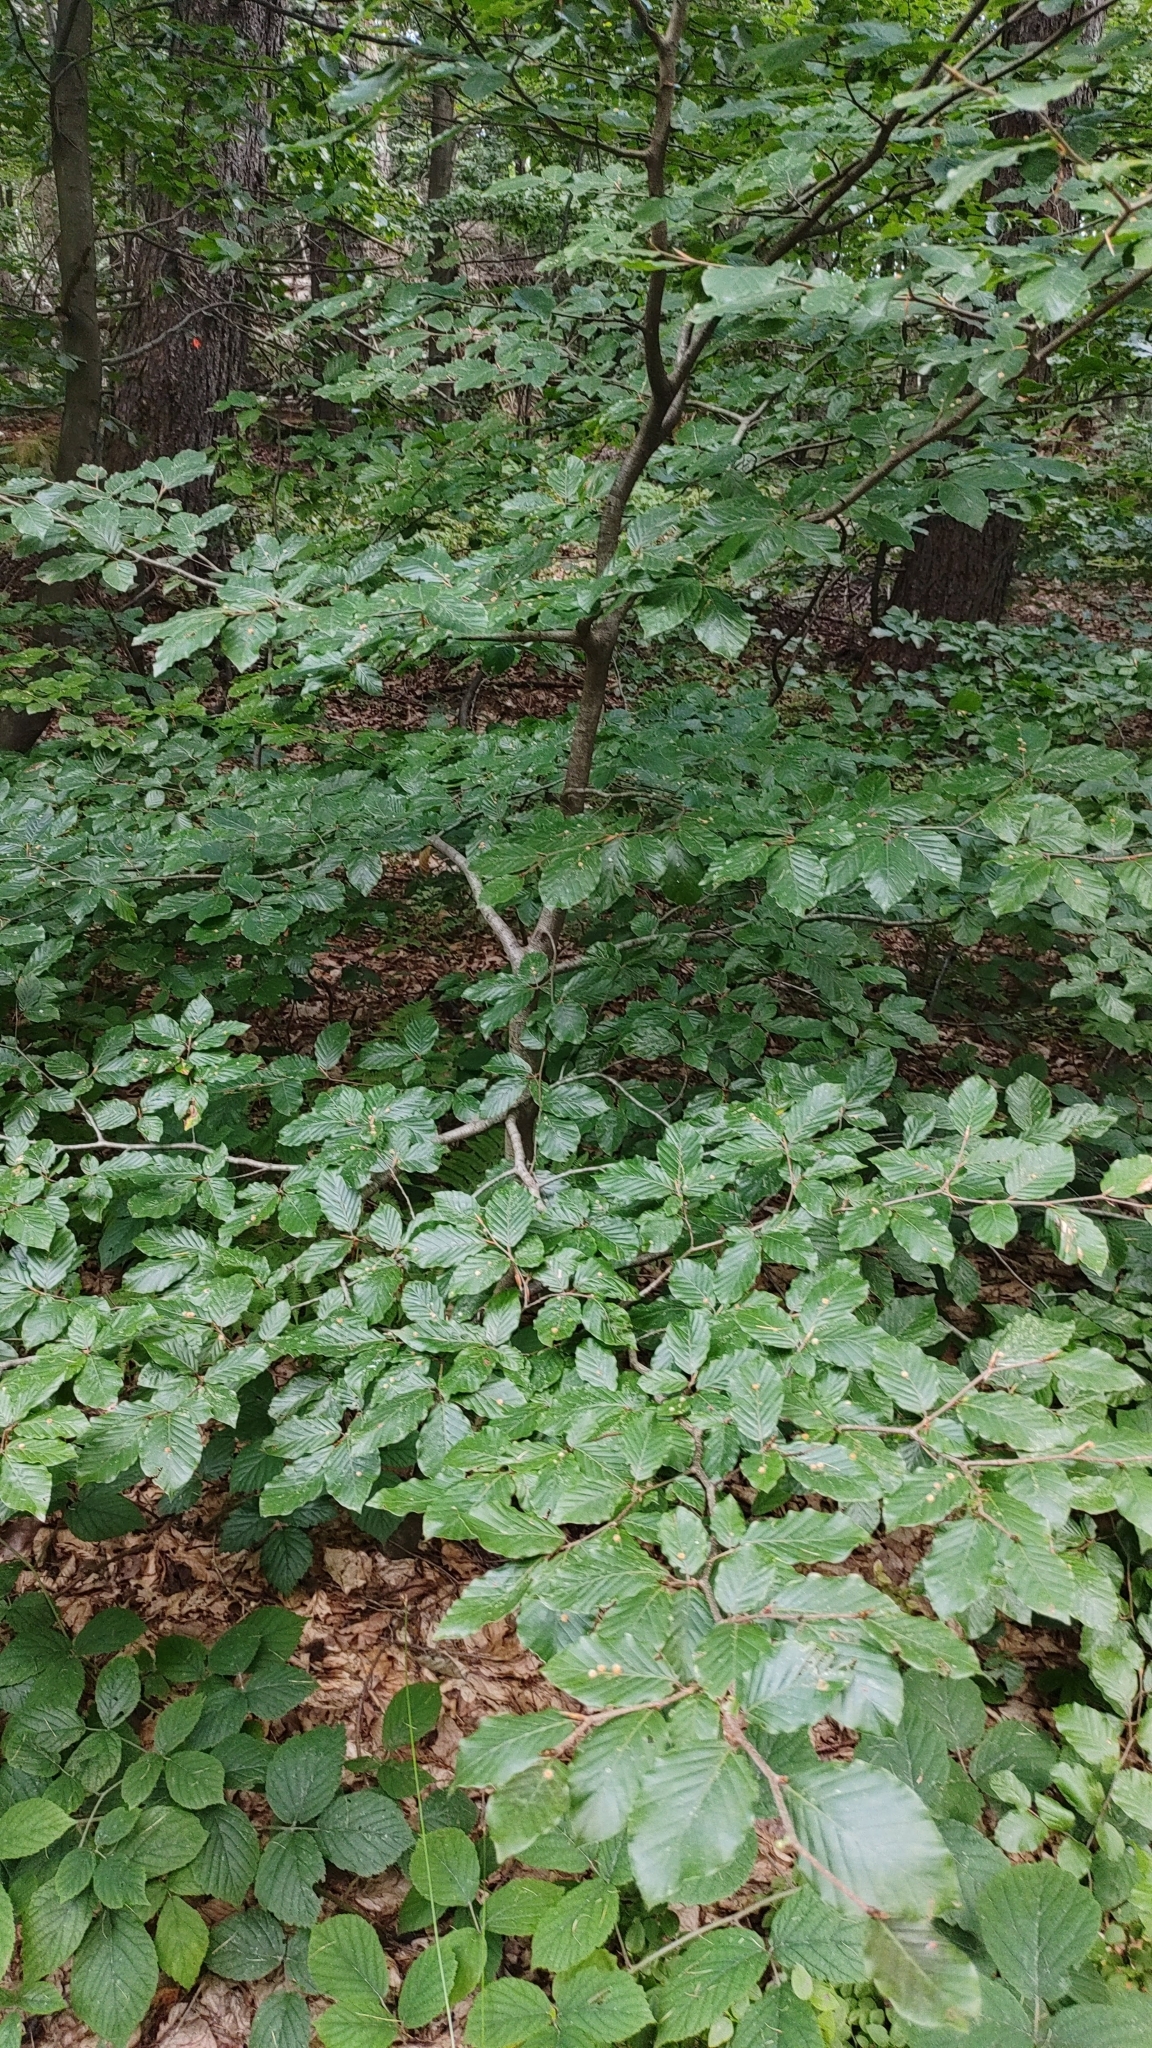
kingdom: Plantae
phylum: Tracheophyta
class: Magnoliopsida
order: Fagales
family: Fagaceae
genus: Fagus
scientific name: Fagus sylvatica
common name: Beech
